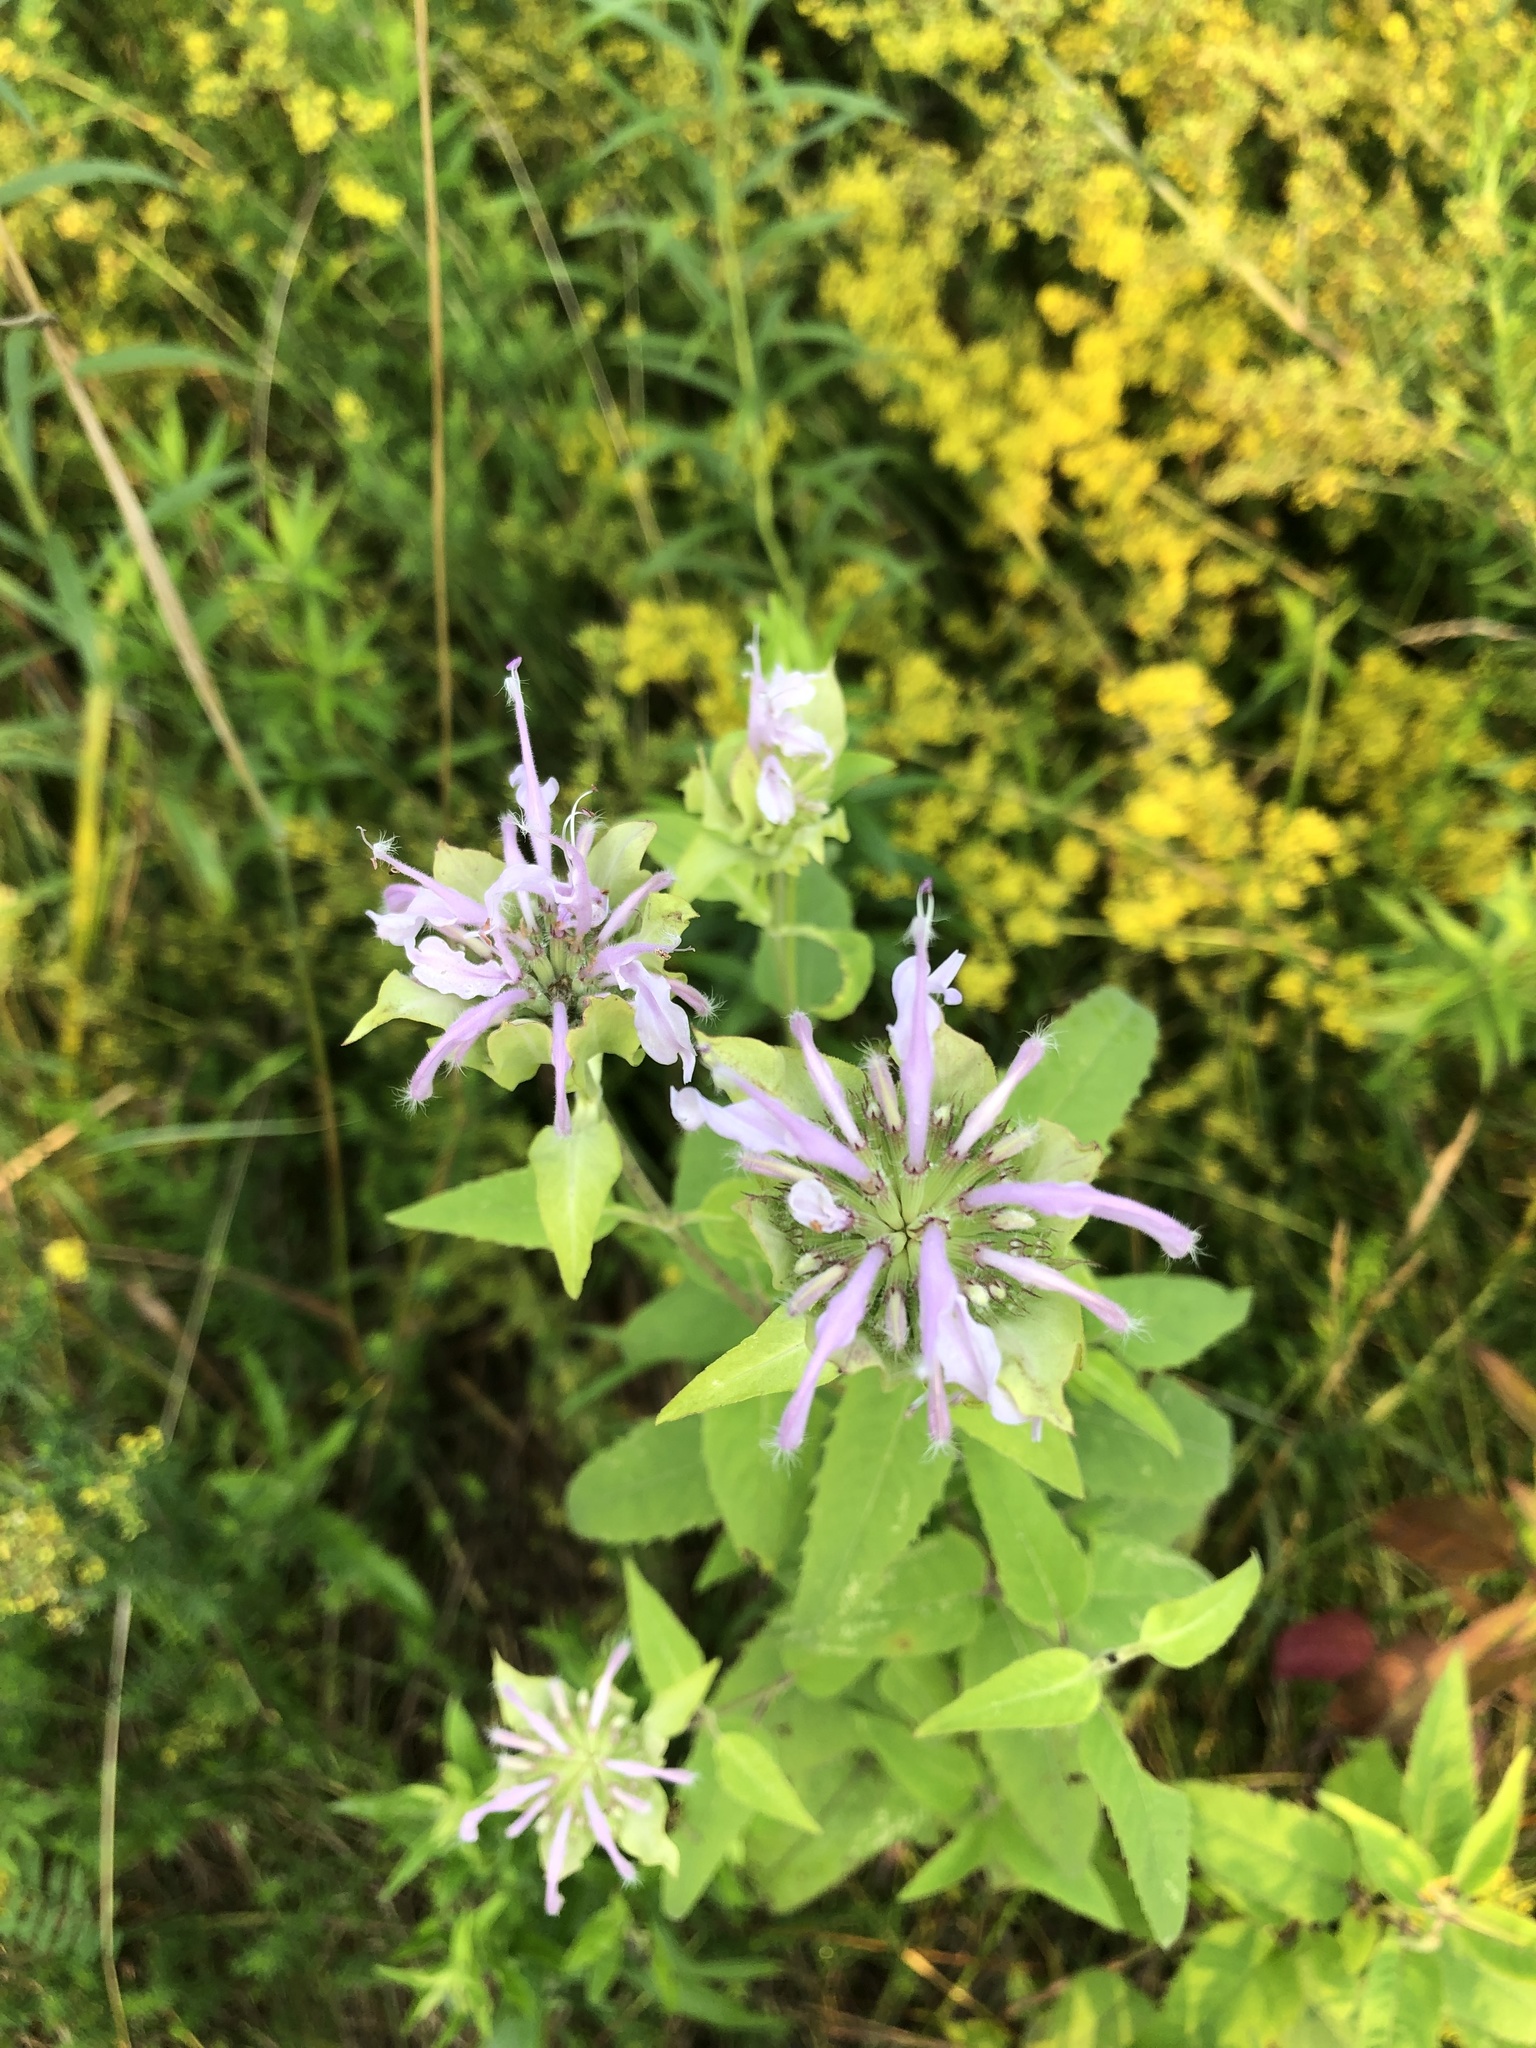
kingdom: Plantae
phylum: Tracheophyta
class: Magnoliopsida
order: Lamiales
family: Lamiaceae
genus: Monarda
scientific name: Monarda fistulosa
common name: Purple beebalm
